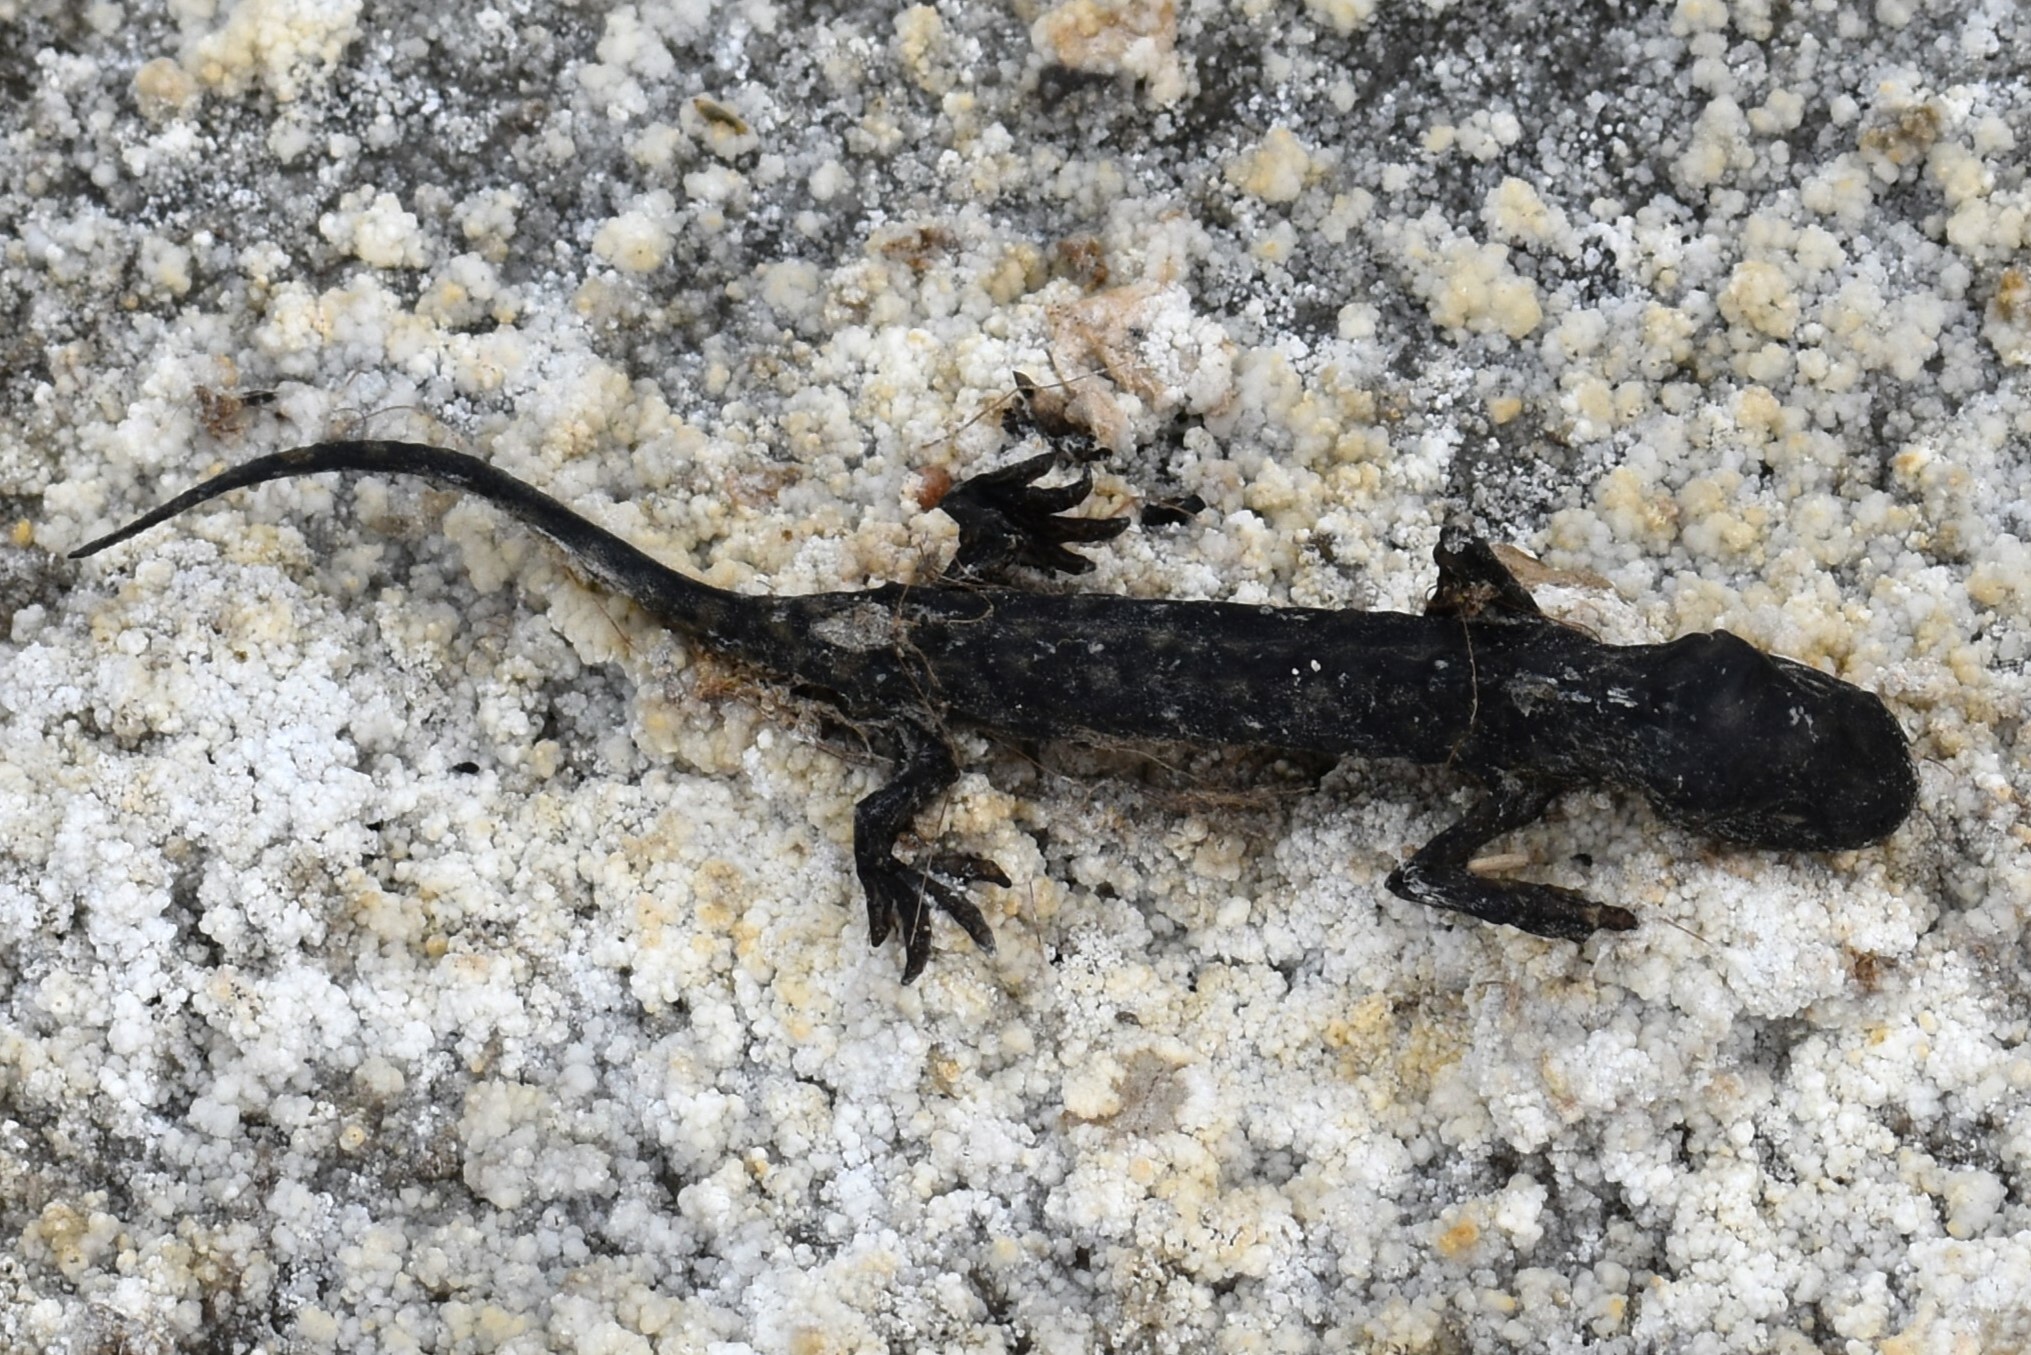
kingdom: Animalia
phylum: Chordata
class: Amphibia
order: Caudata
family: Ambystomatidae
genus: Ambystoma
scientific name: Ambystoma mavortium
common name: Western tiger salamander
